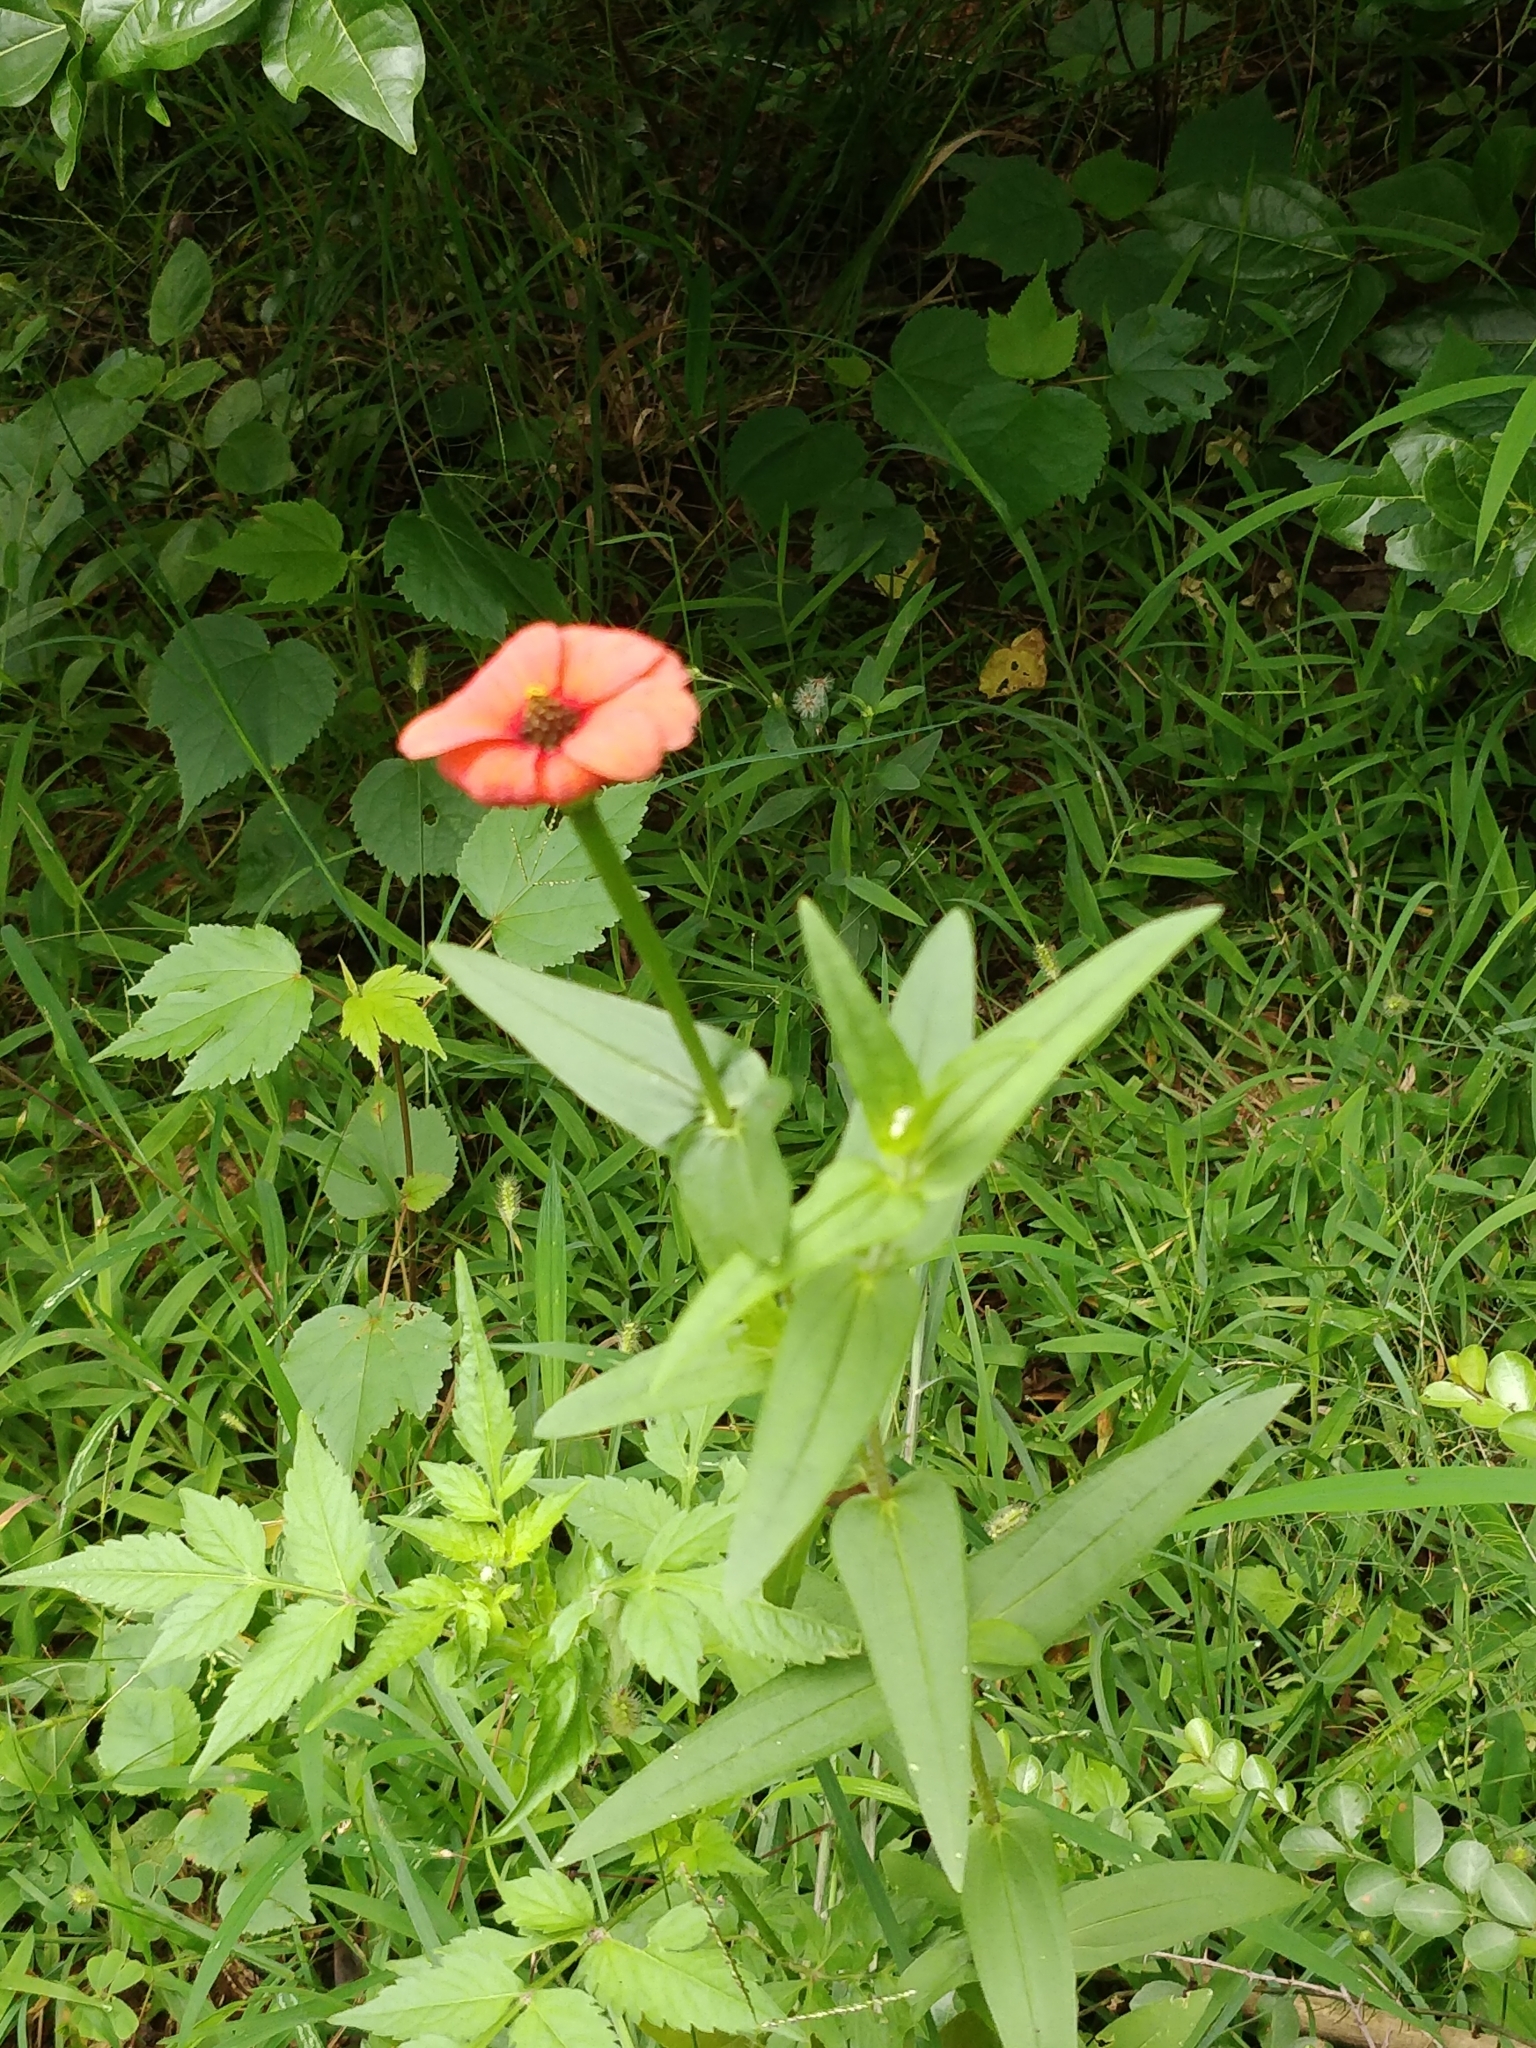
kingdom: Plantae
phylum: Tracheophyta
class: Magnoliopsida
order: Asterales
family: Asteraceae
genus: Zinnia
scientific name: Zinnia peruviana
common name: Peruvian zinnia
